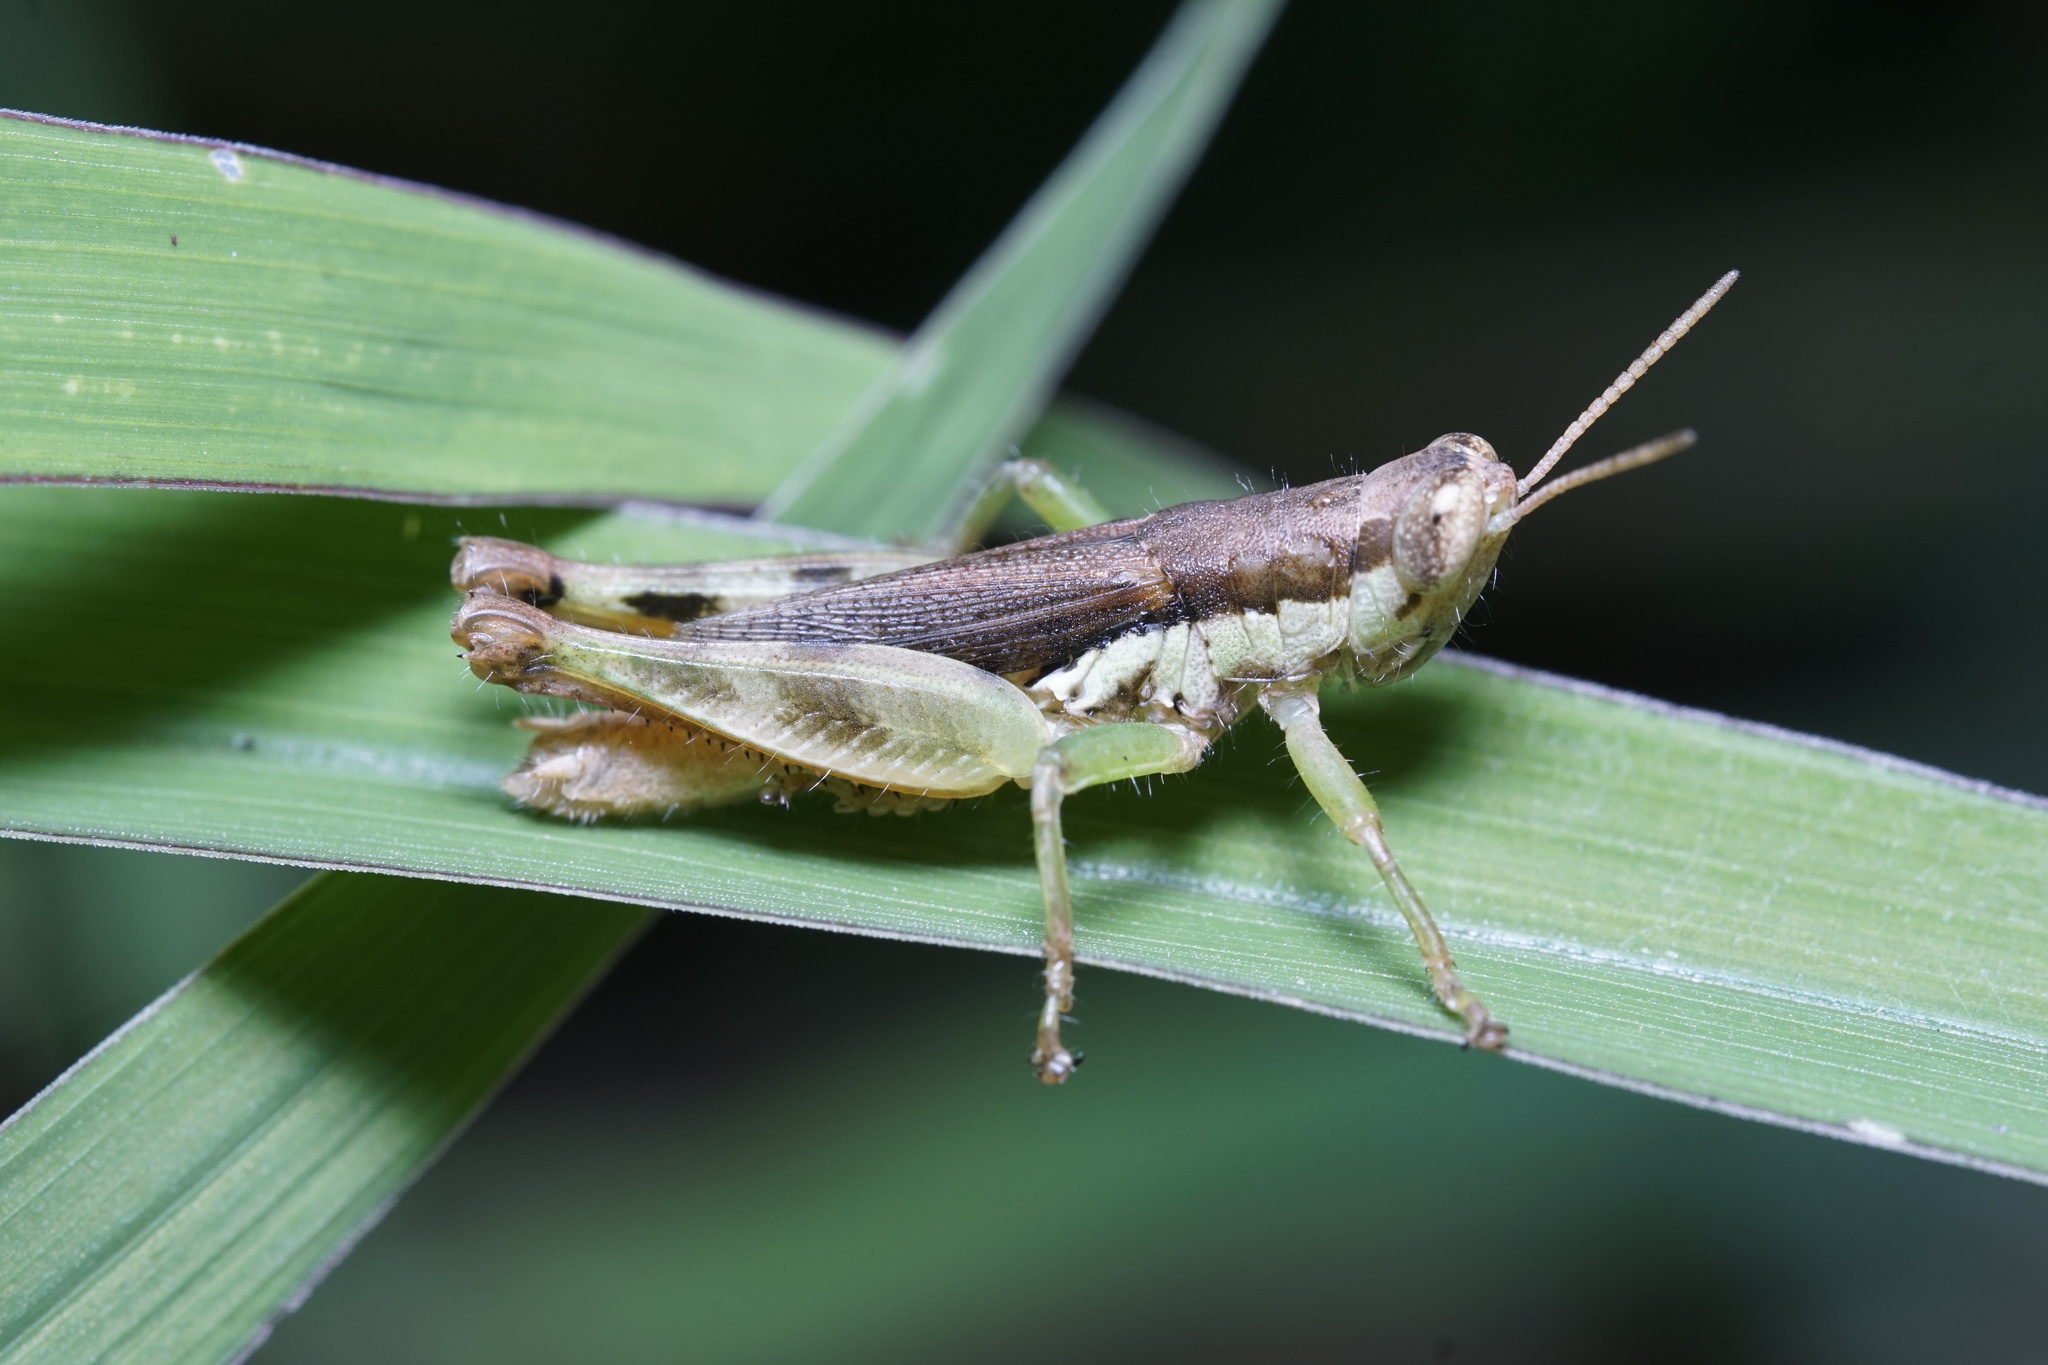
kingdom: Animalia
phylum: Arthropoda
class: Insecta
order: Orthoptera
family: Acrididae
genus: Pseudoxya
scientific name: Pseudoxya diminuta
